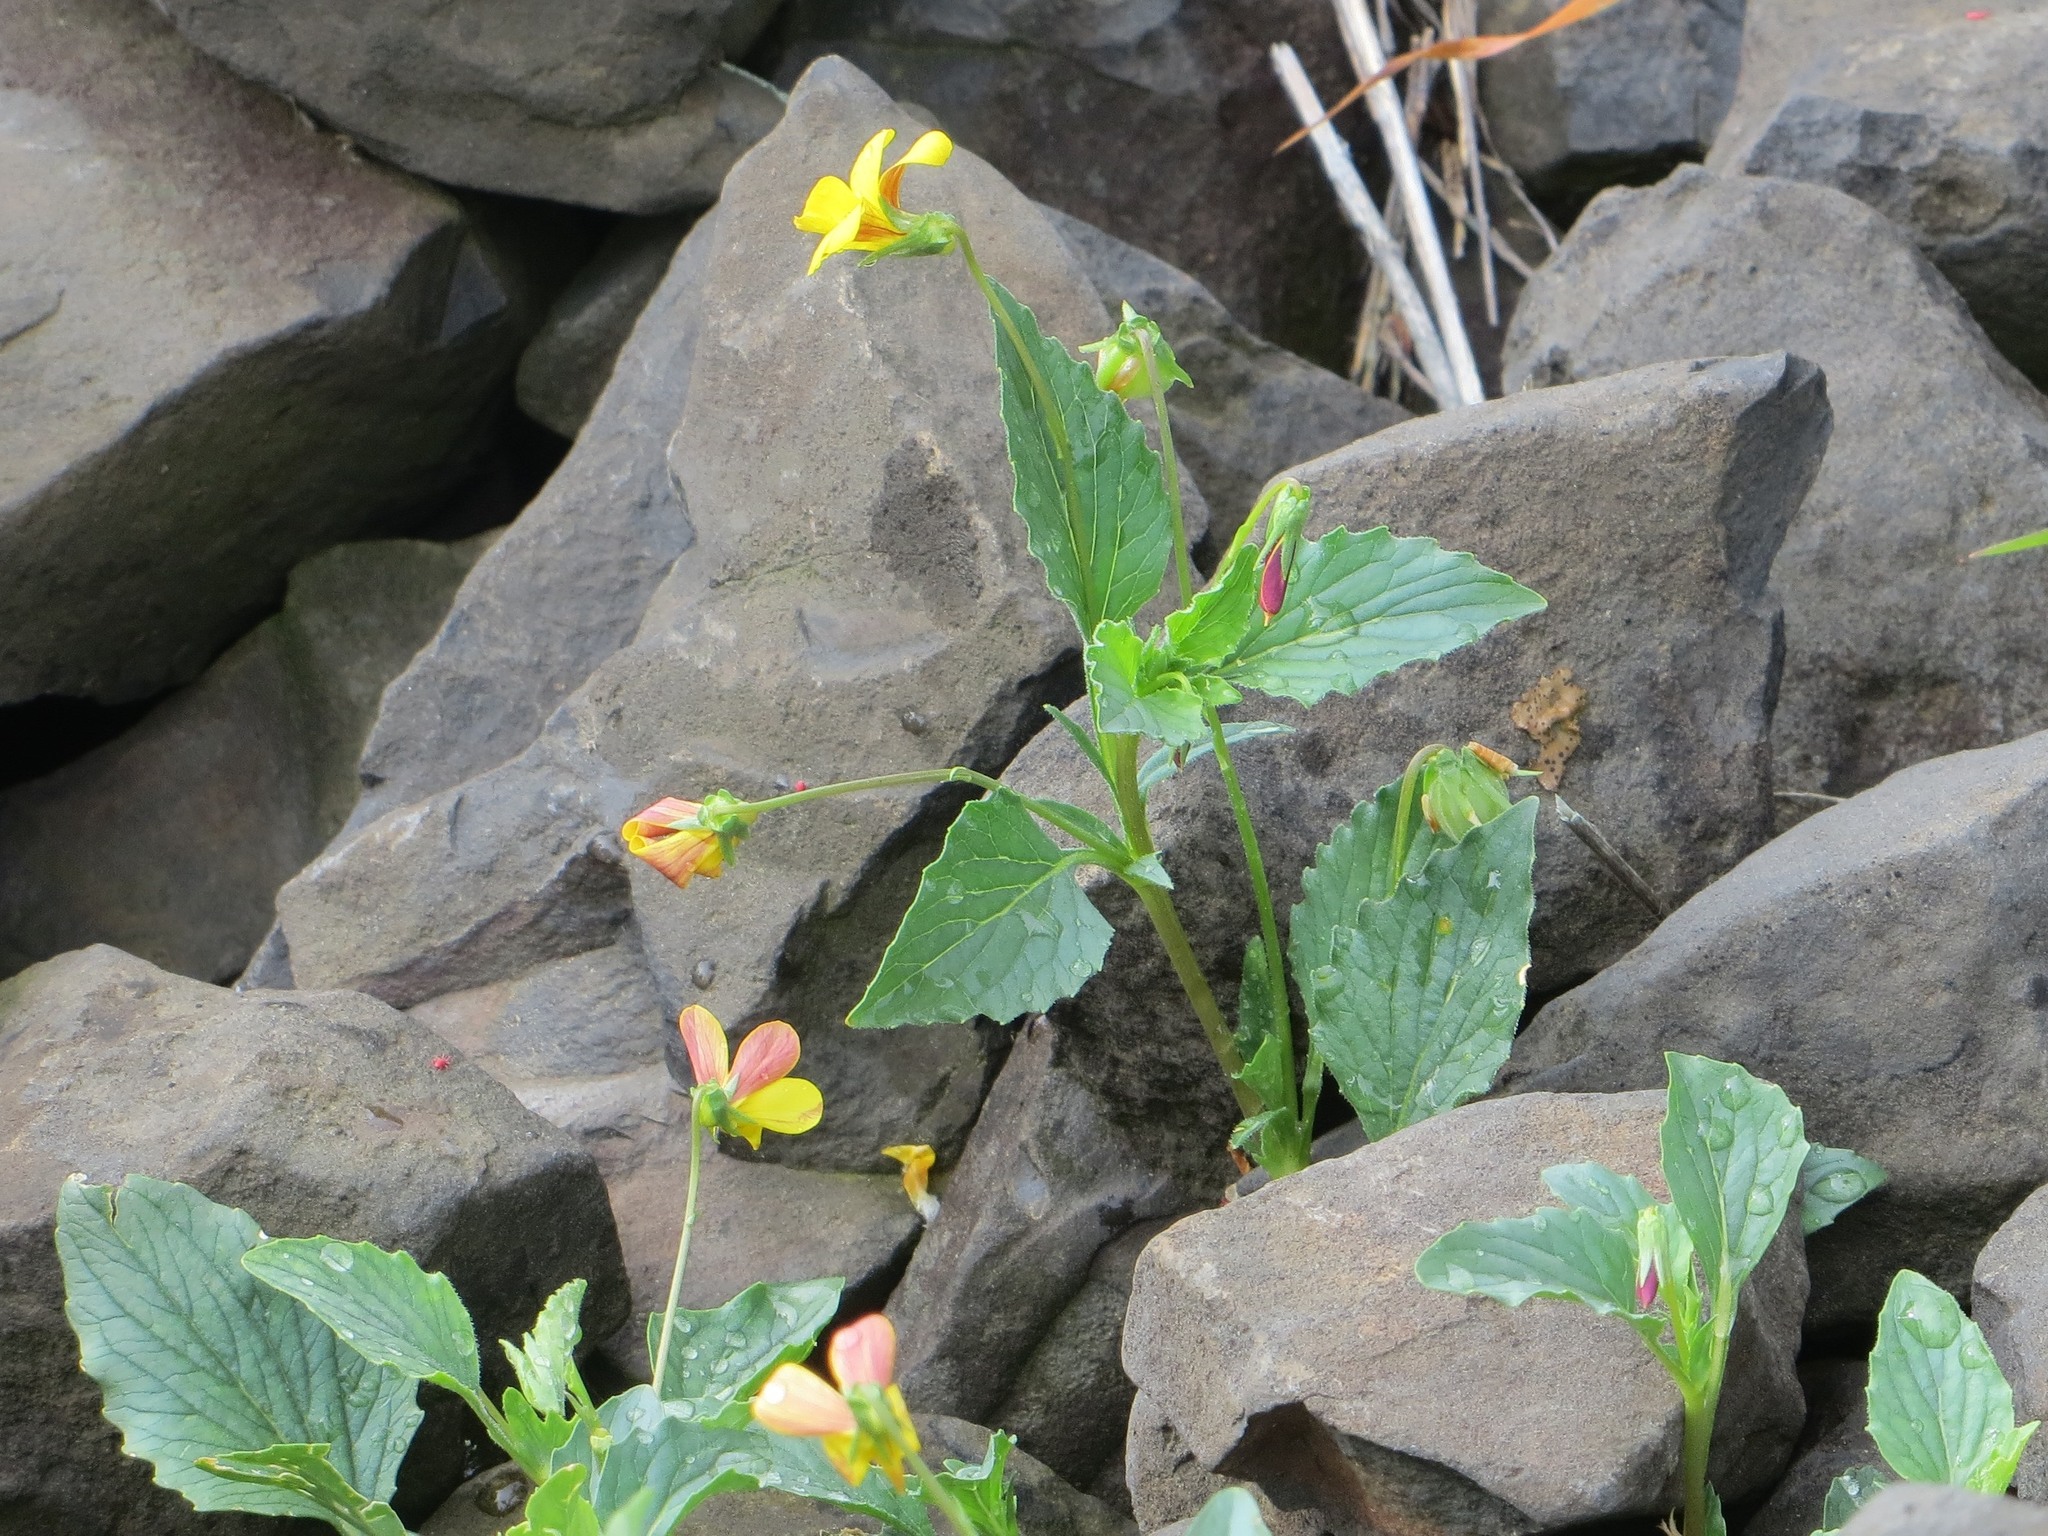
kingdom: Plantae
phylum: Tracheophyta
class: Magnoliopsida
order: Malpighiales
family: Violaceae
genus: Viola
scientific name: Viola quercetorum
